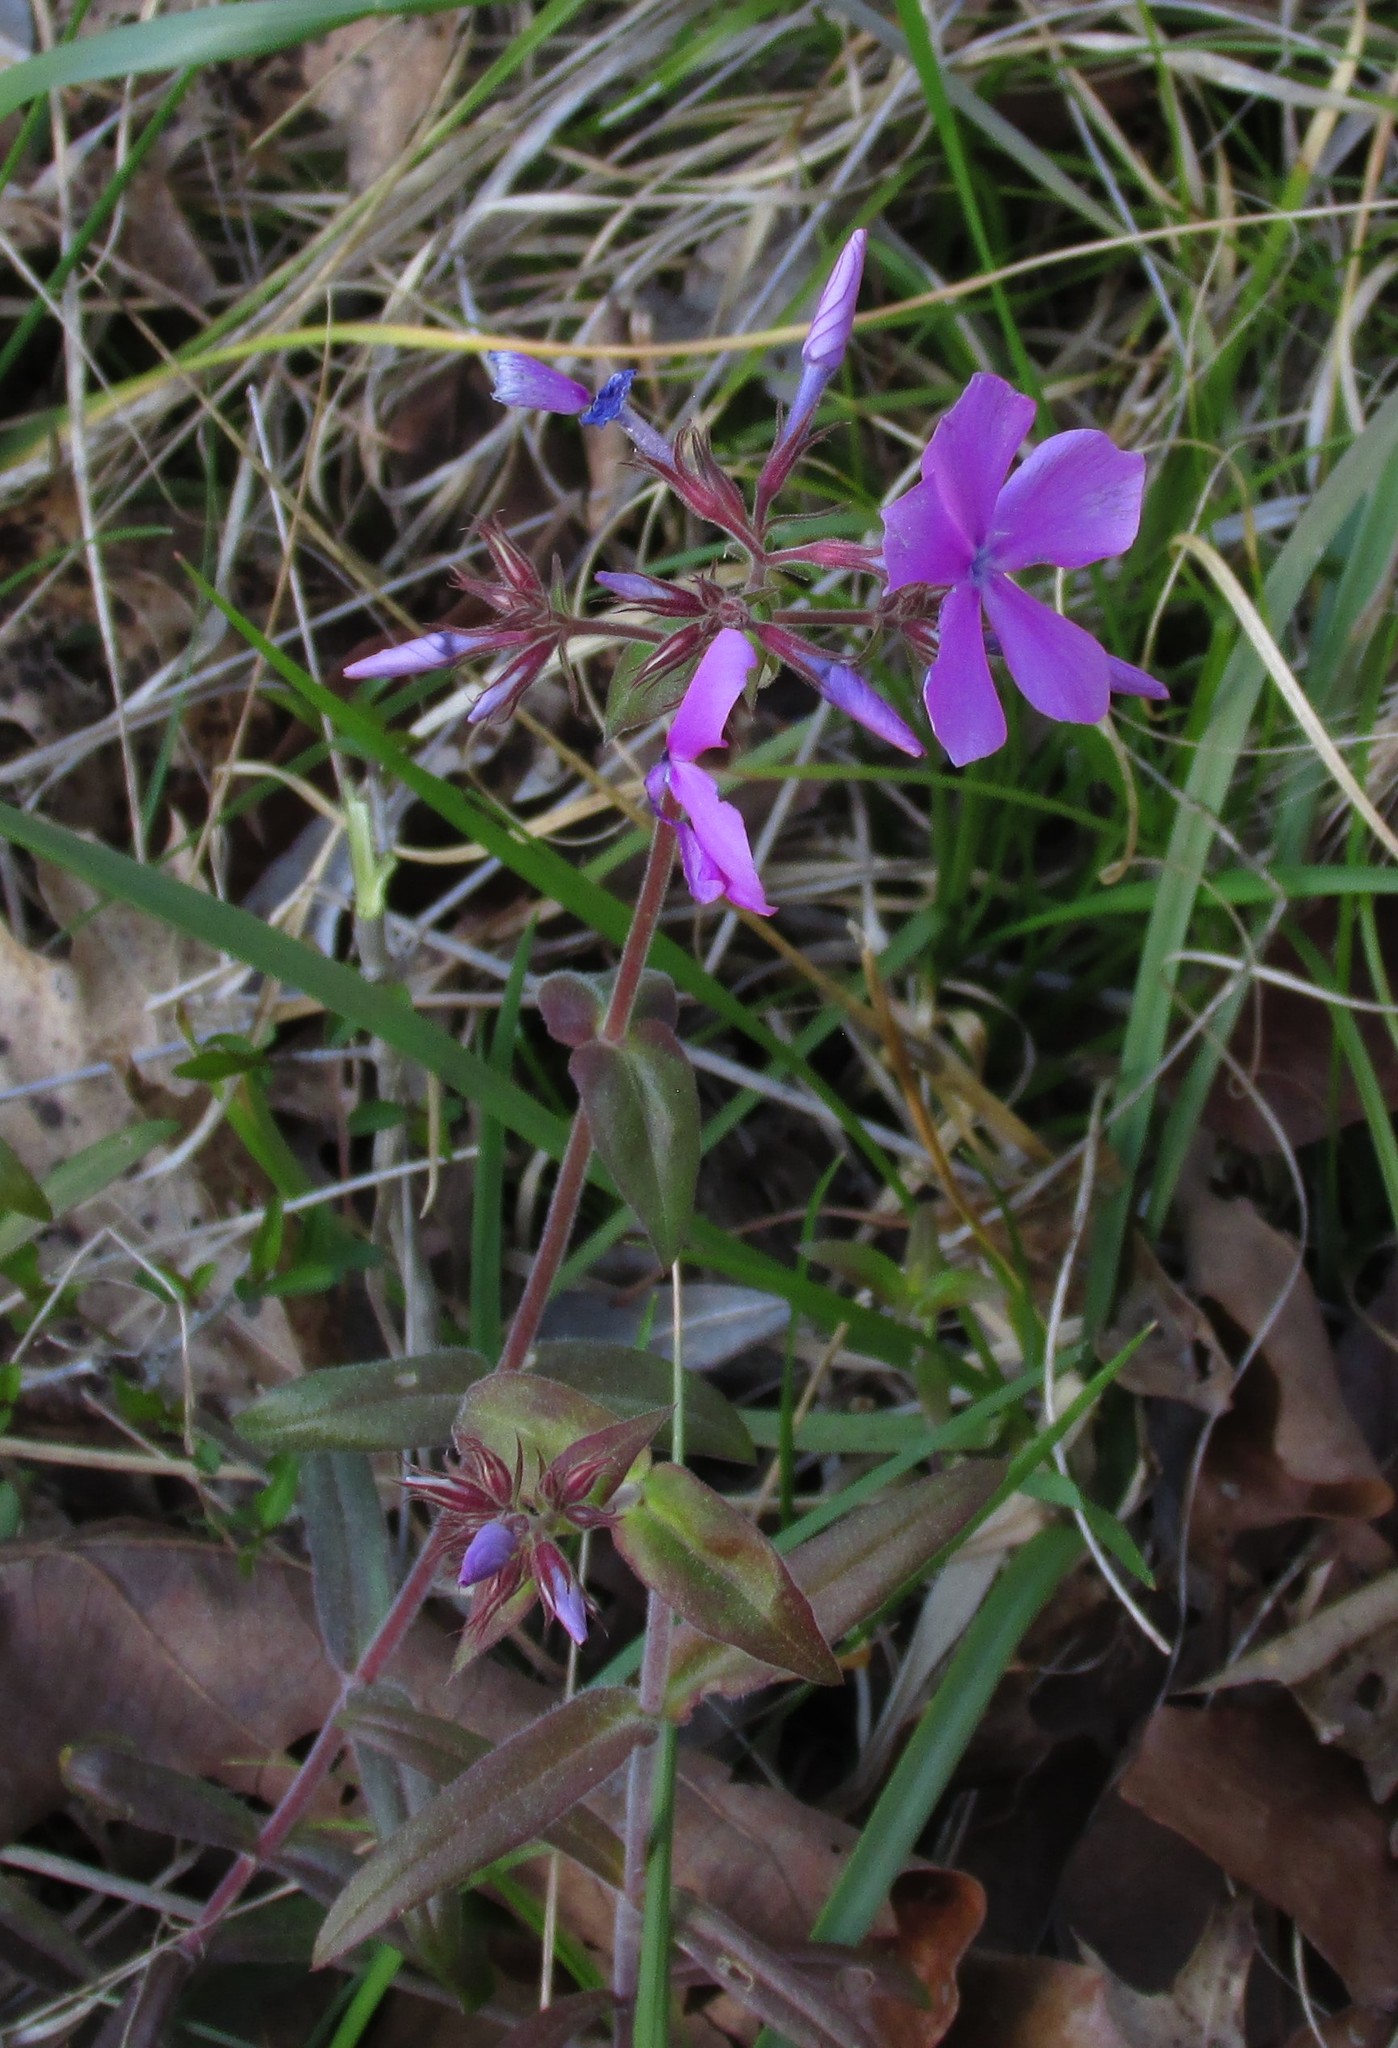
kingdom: Plantae
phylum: Tracheophyta
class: Magnoliopsida
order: Ericales
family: Polemoniaceae
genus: Phlox
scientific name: Phlox pilosa
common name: Prairie phlox
